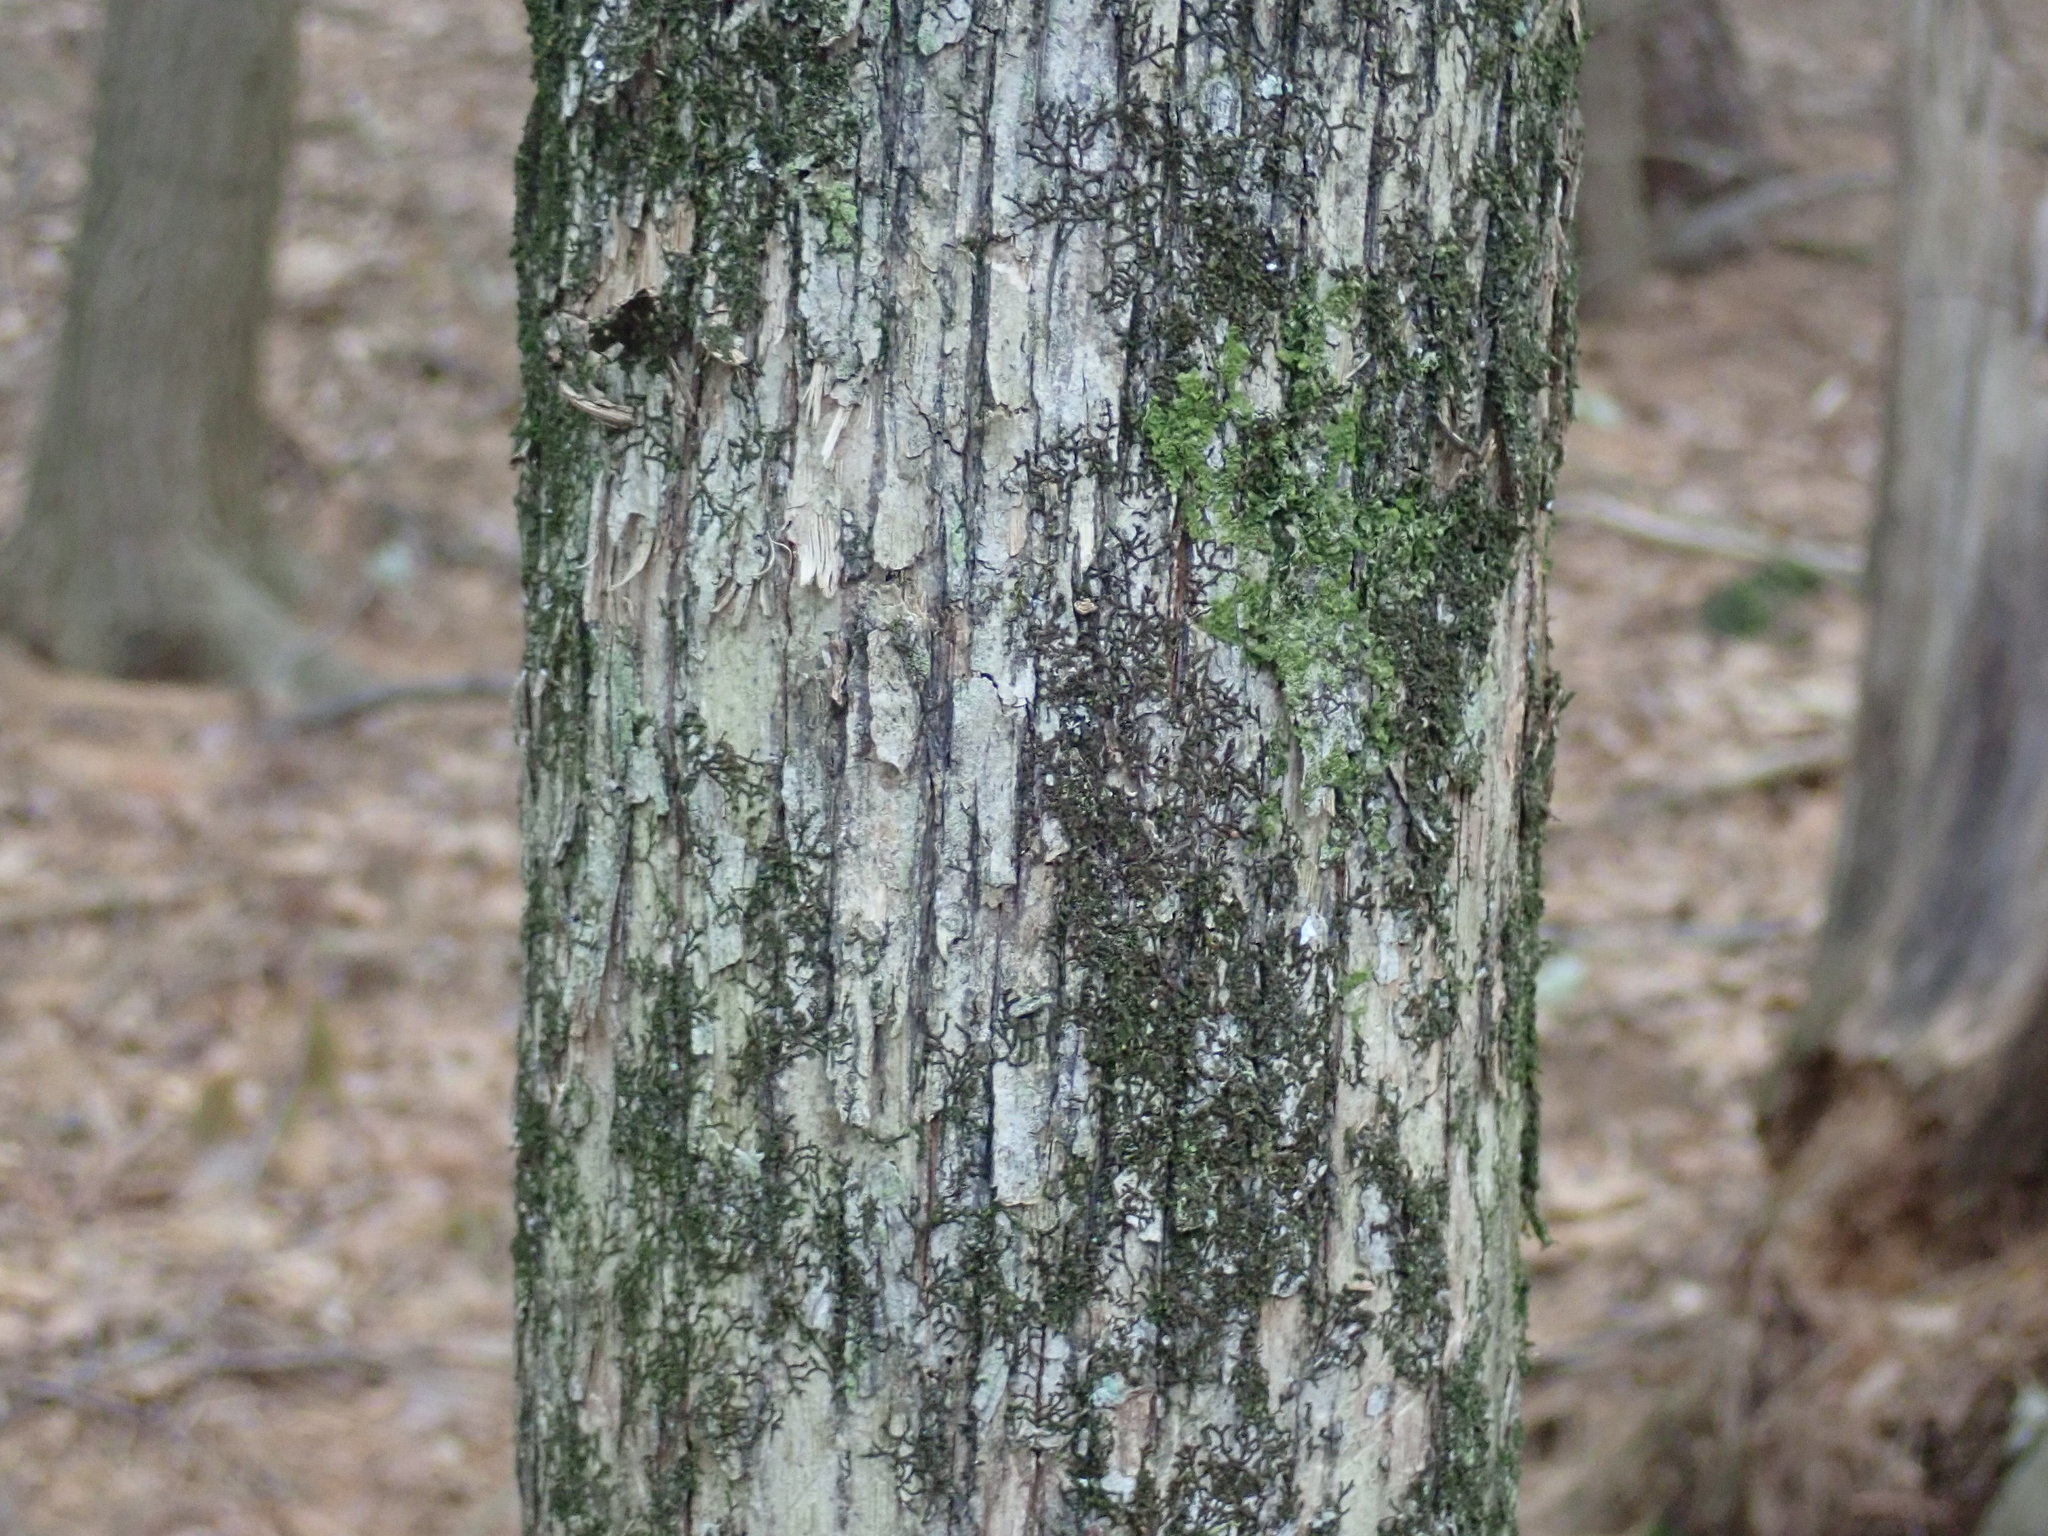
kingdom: Plantae
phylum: Tracheophyta
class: Magnoliopsida
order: Fagales
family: Betulaceae
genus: Ostrya
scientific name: Ostrya virginiana
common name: Ironwood
